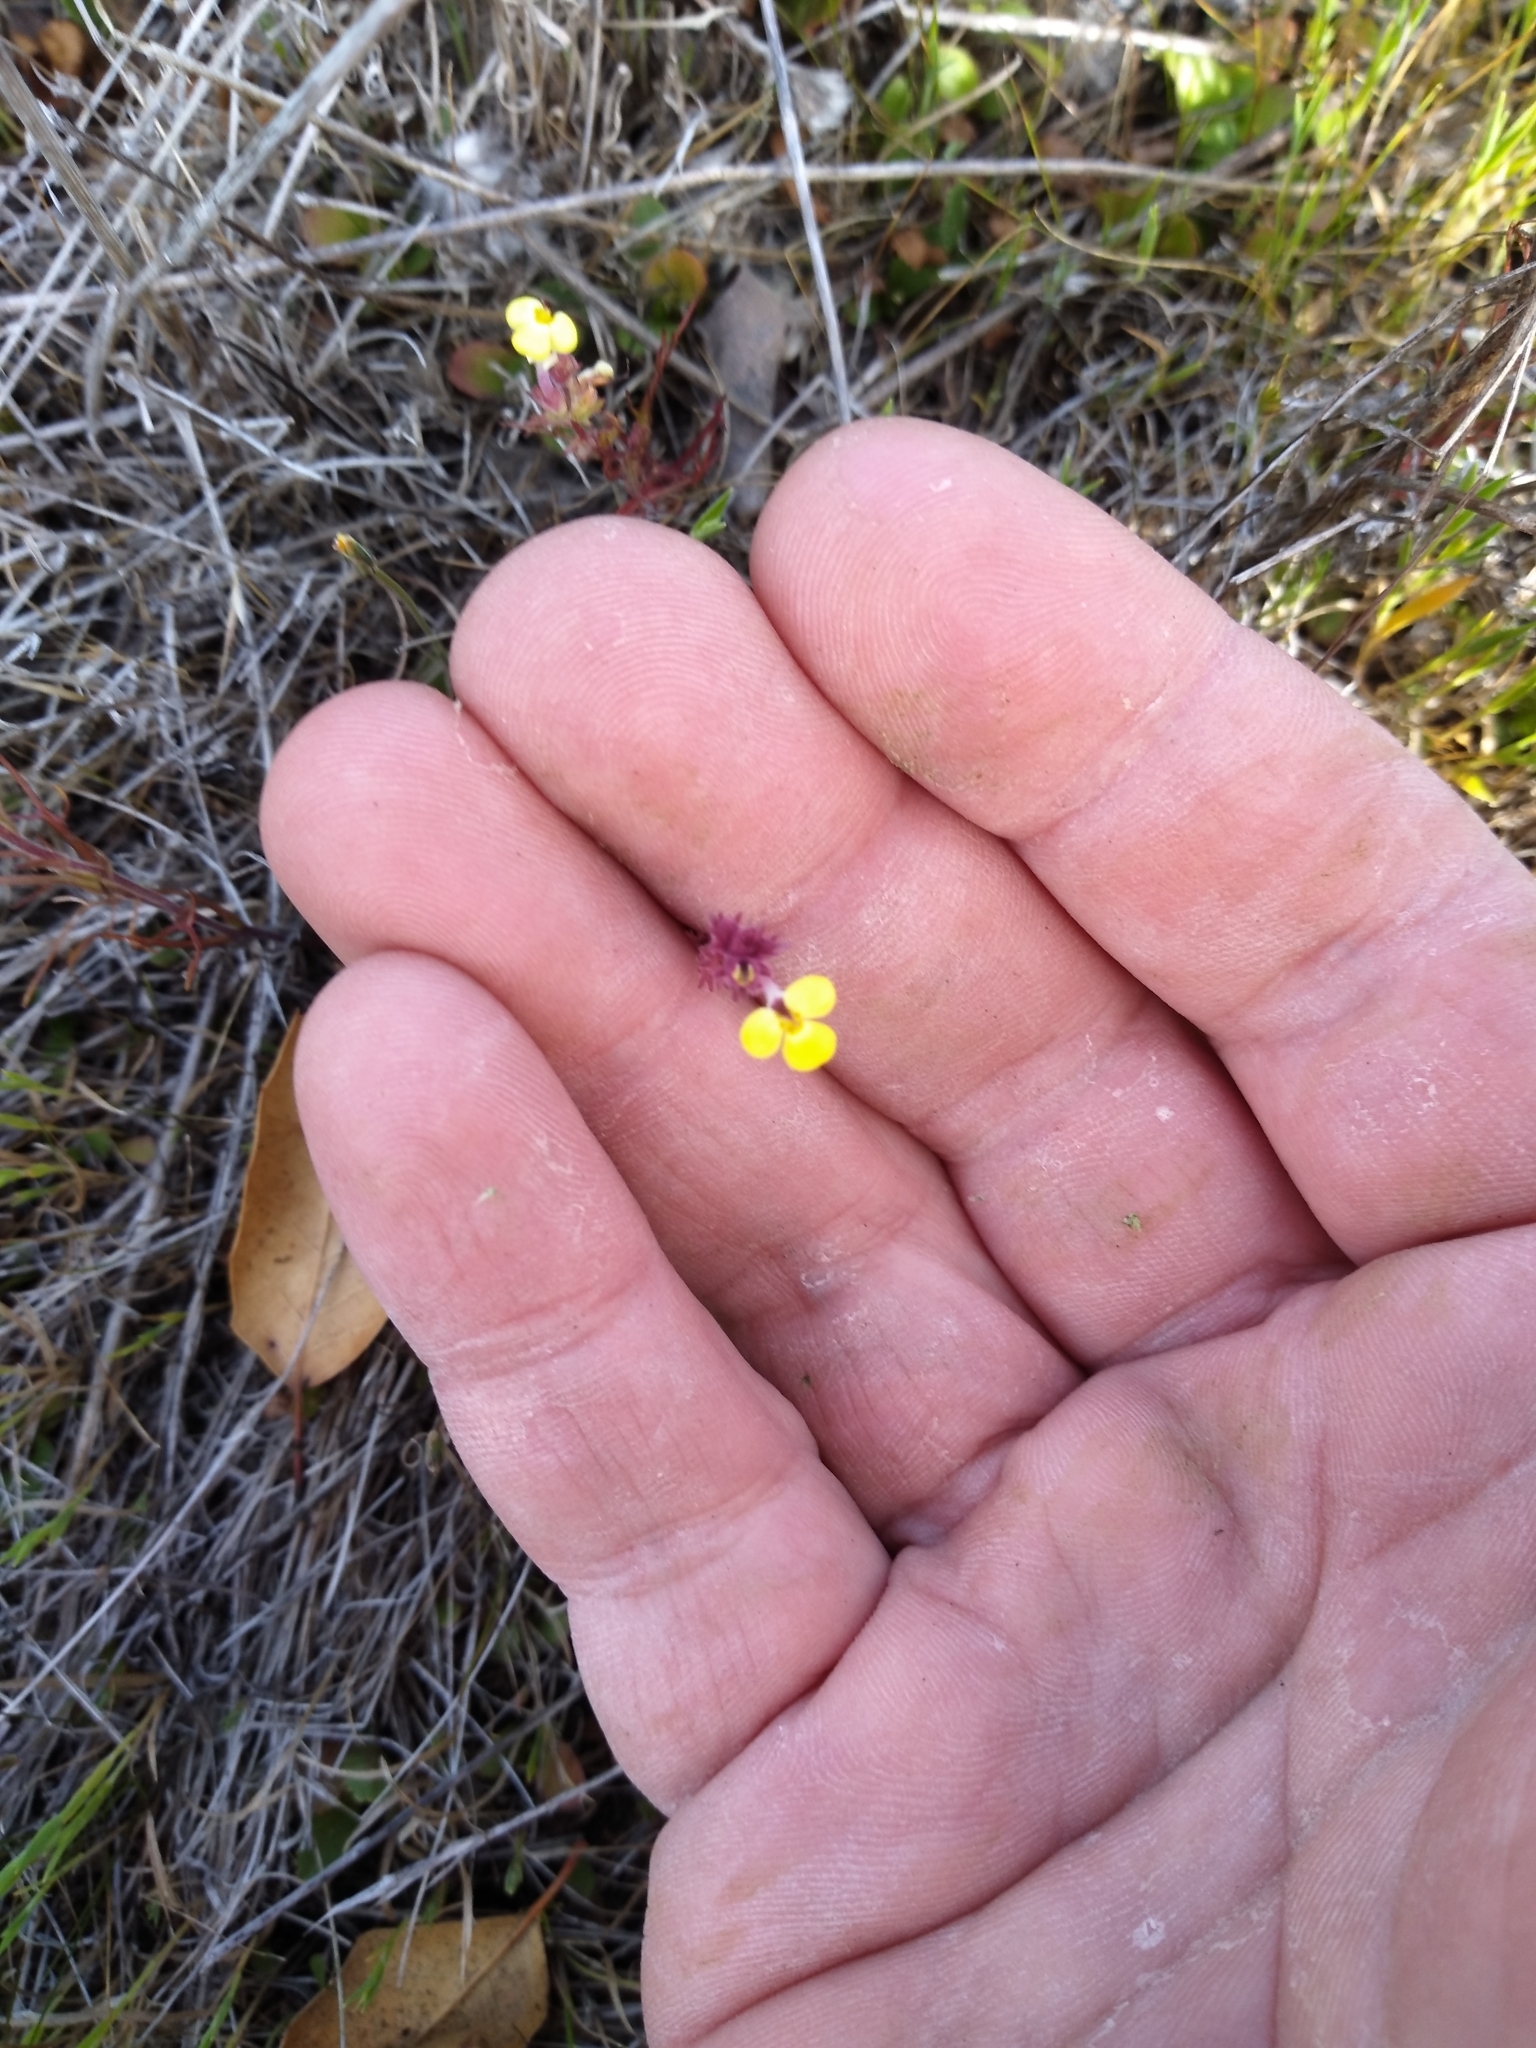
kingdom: Plantae
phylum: Tracheophyta
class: Magnoliopsida
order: Lamiales
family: Orobanchaceae
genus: Triphysaria
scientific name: Triphysaria eriantha
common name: Johnny-tuck
